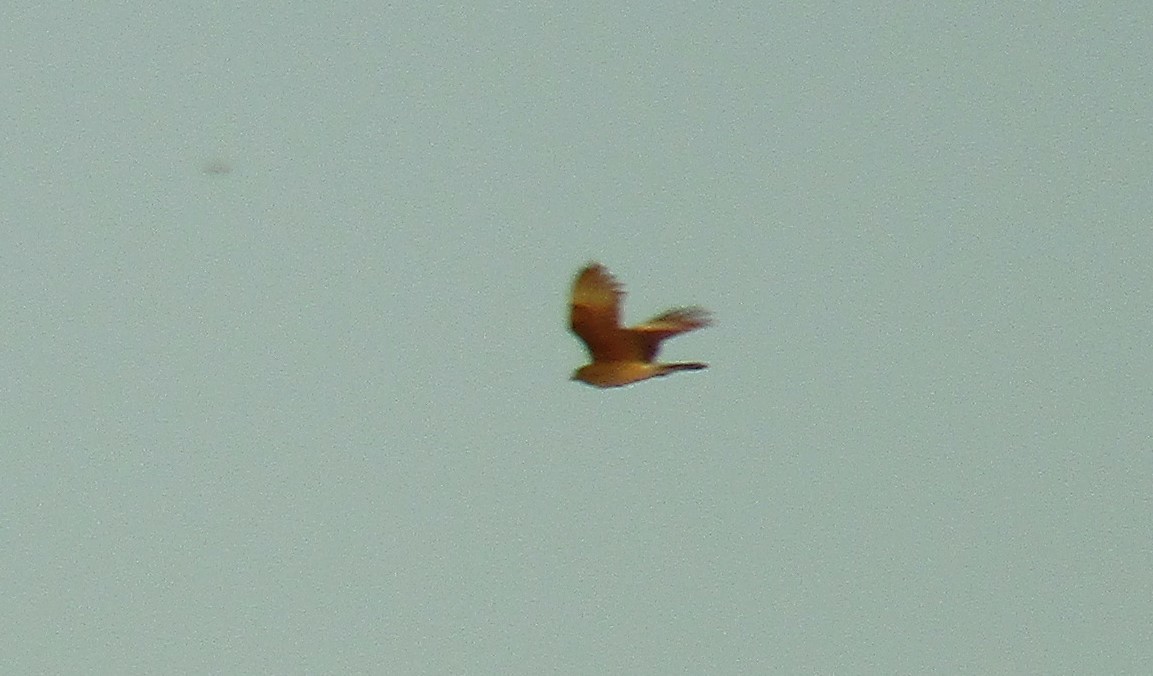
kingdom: Animalia
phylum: Chordata
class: Aves
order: Falconiformes
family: Falconidae
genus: Daptrius
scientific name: Daptrius
